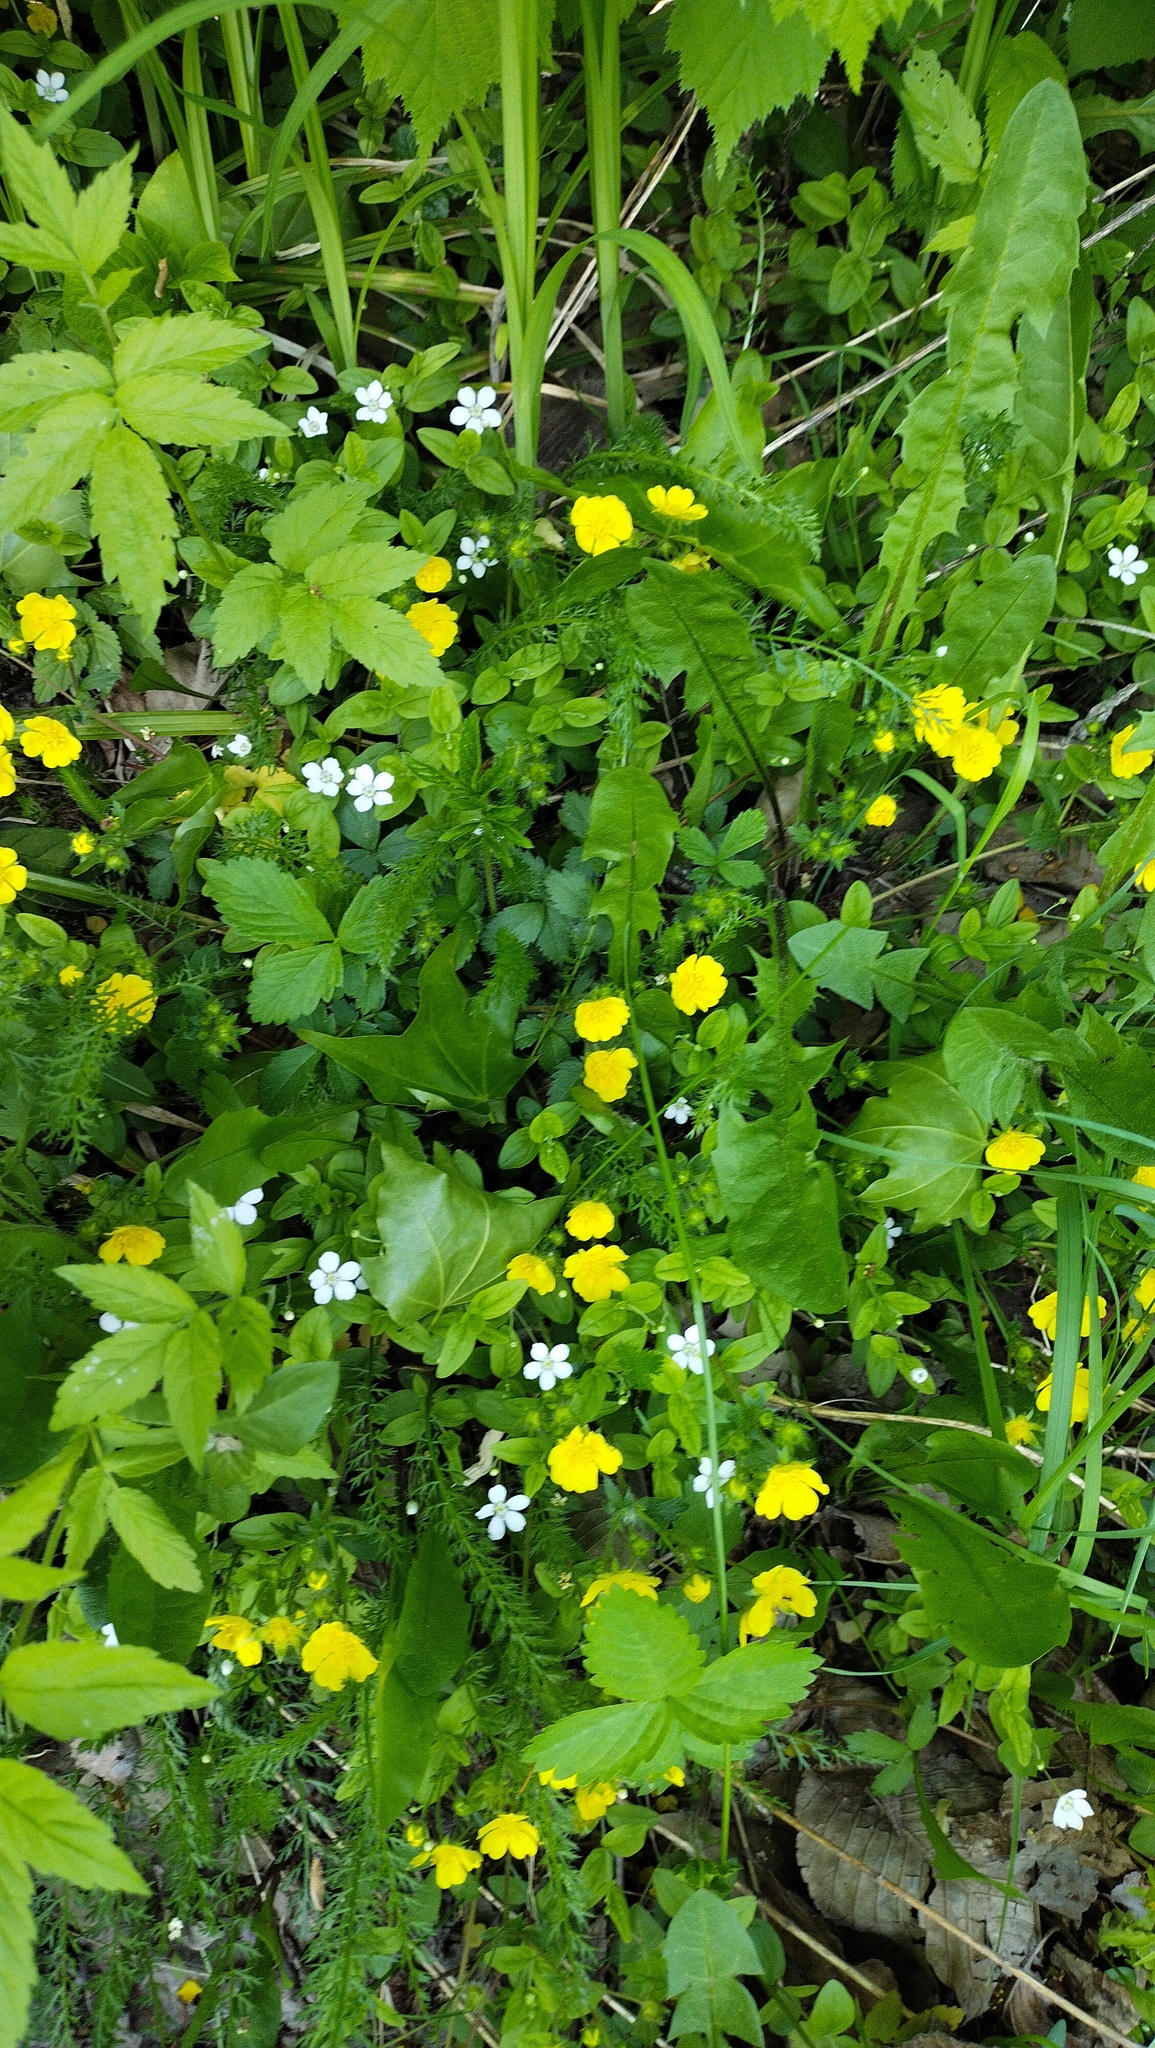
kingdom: Plantae
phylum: Tracheophyta
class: Magnoliopsida
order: Rosales
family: Rosaceae
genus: Potentilla
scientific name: Potentilla fragarioides
